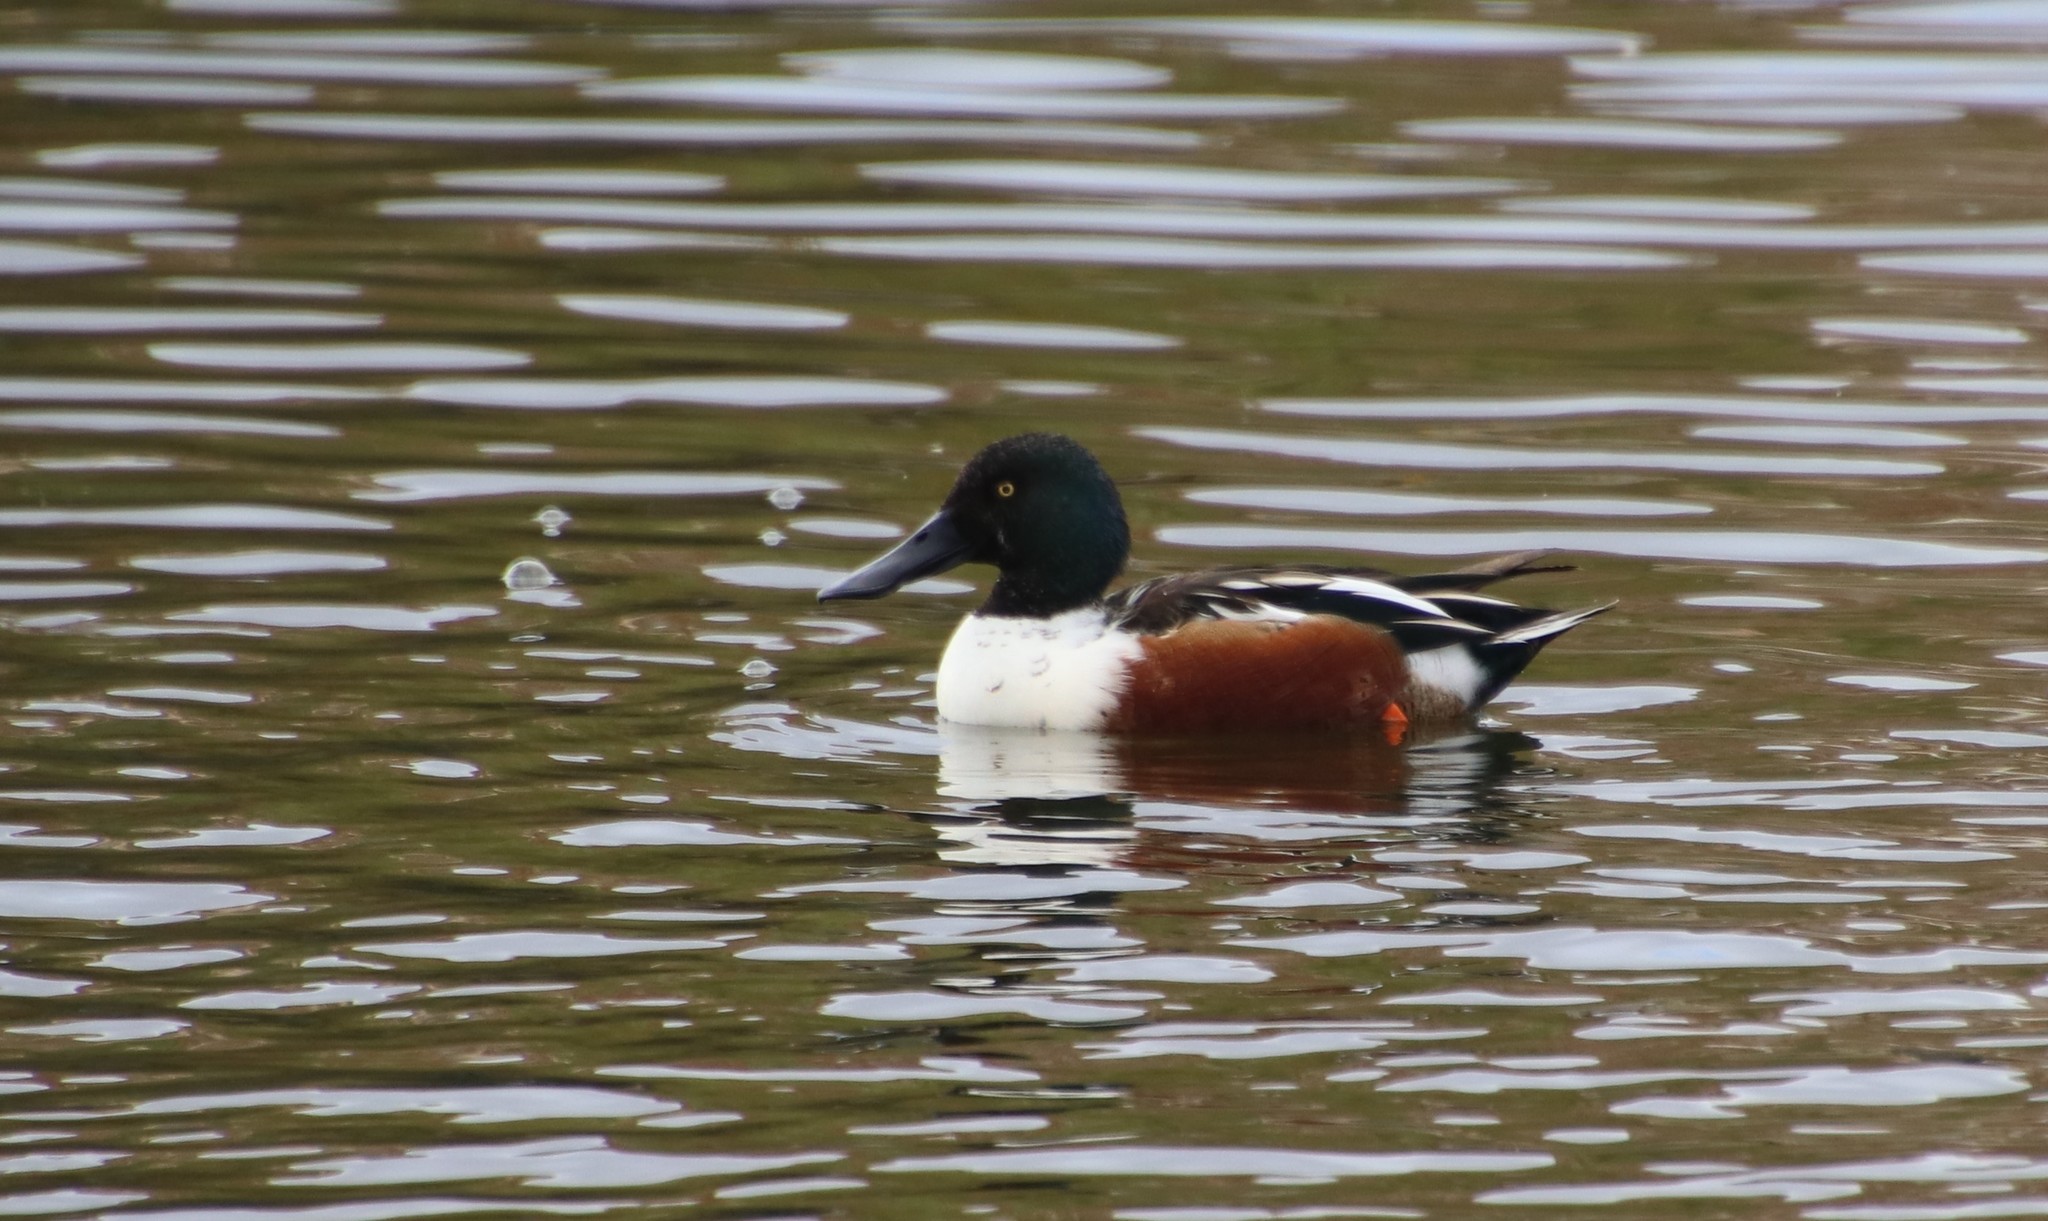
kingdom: Animalia
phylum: Chordata
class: Aves
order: Anseriformes
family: Anatidae
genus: Spatula
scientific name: Spatula clypeata
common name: Northern shoveler
